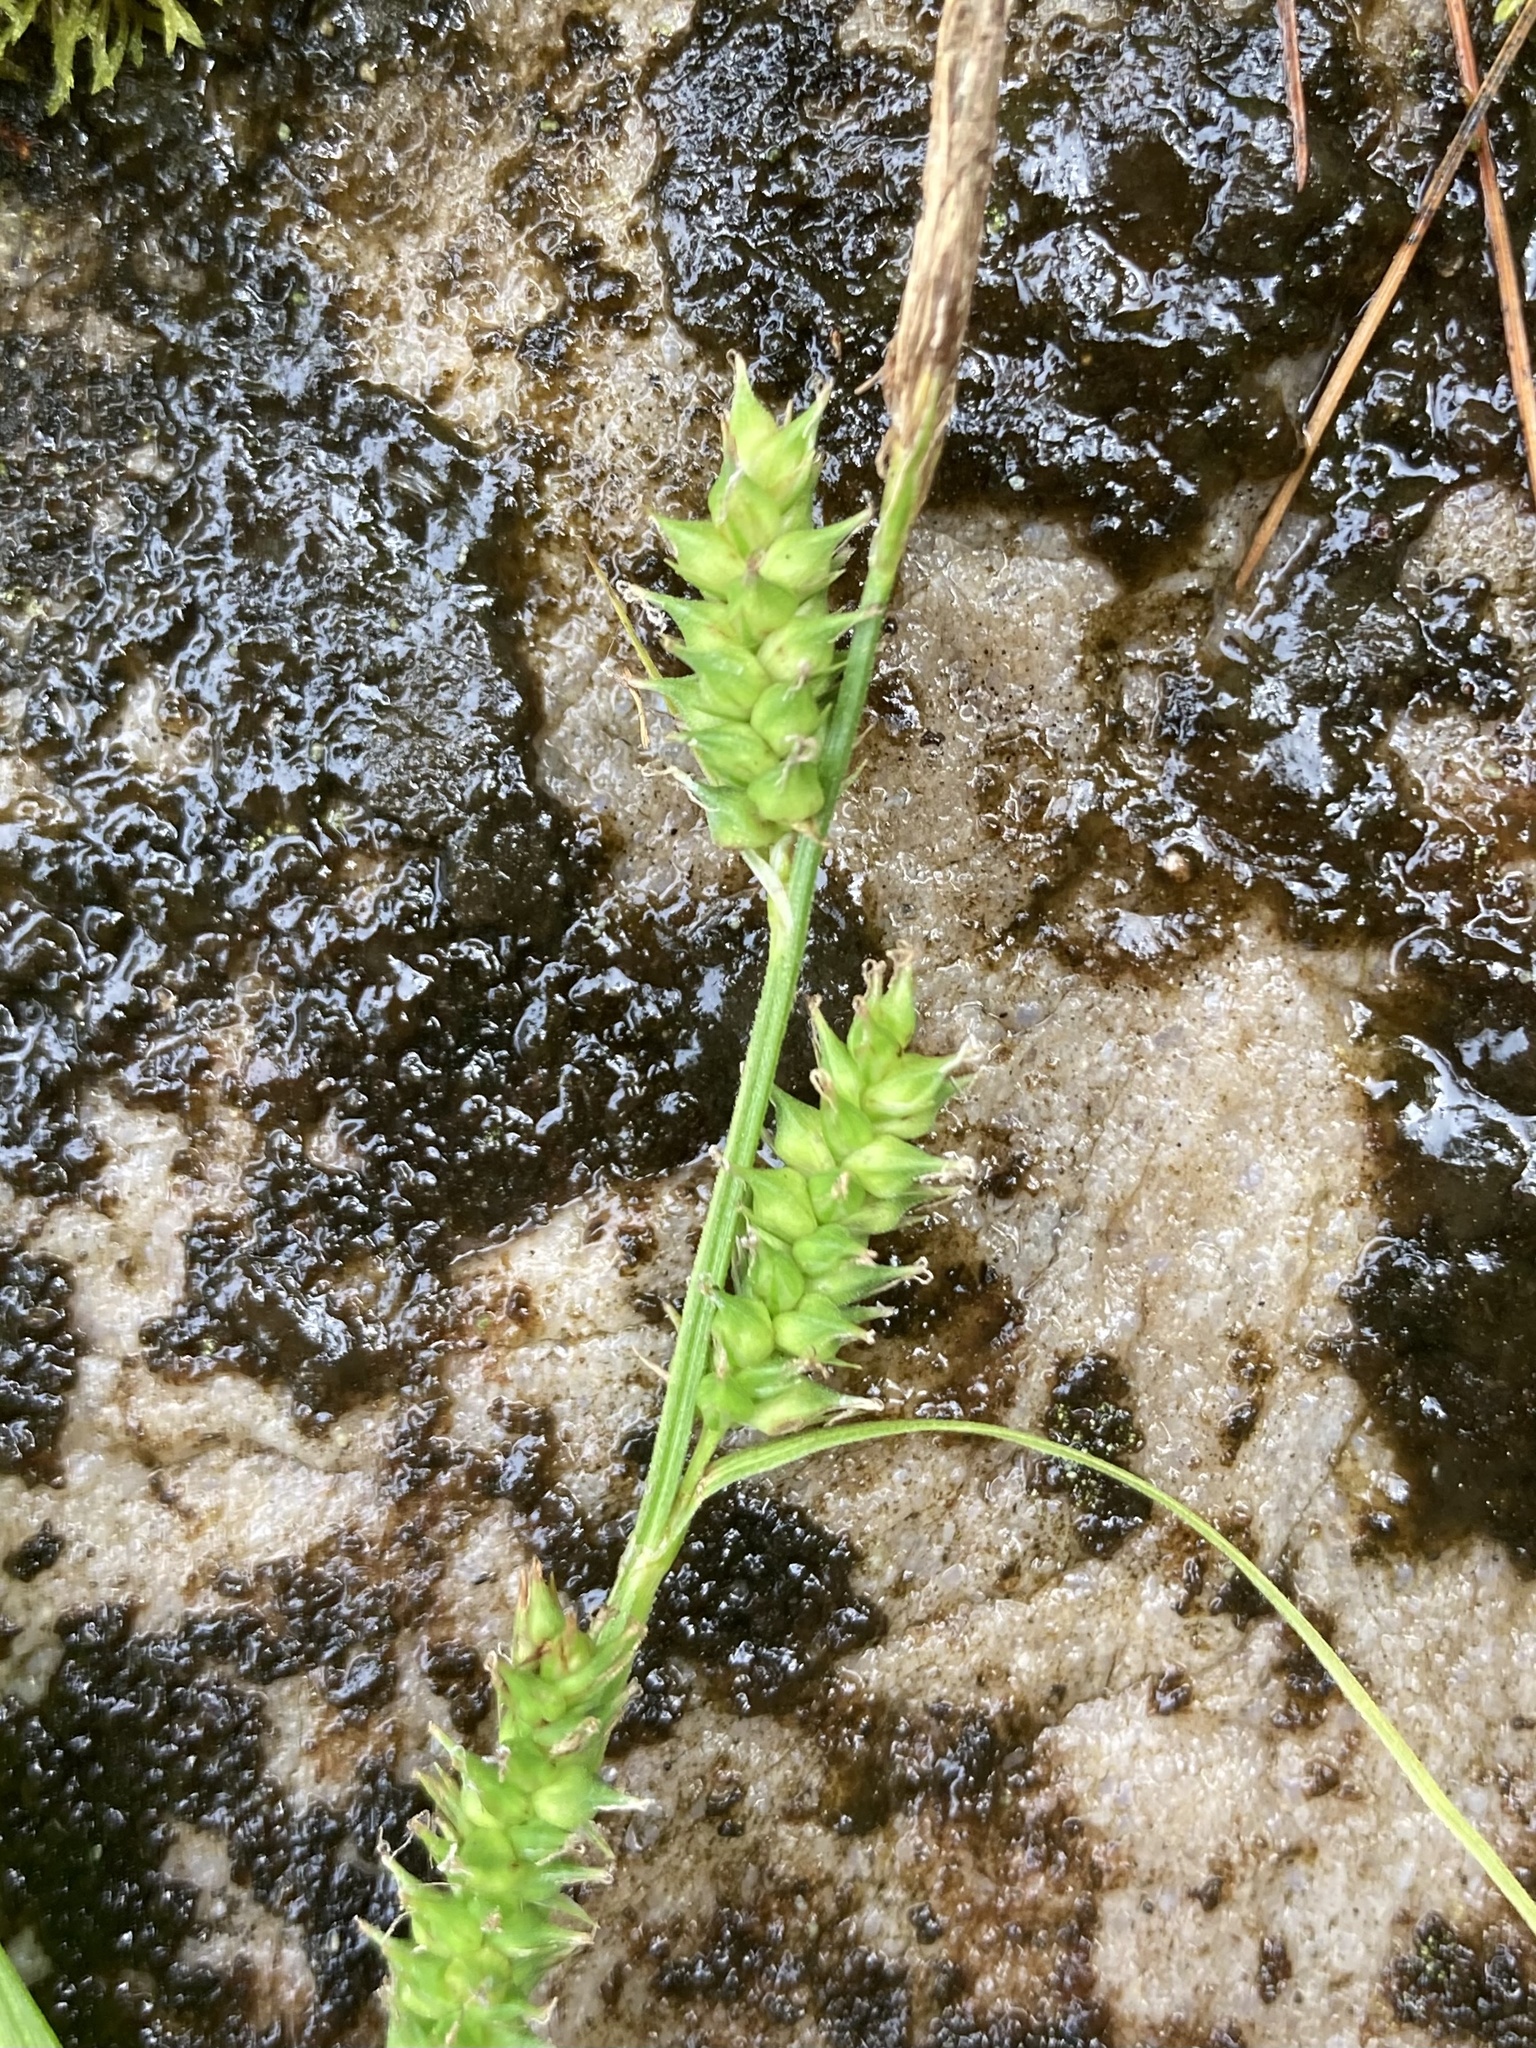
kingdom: Plantae
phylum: Tracheophyta
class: Liliopsida
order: Poales
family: Cyperaceae
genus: Carex
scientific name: Carex scabrata
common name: Eastern rough sedge
